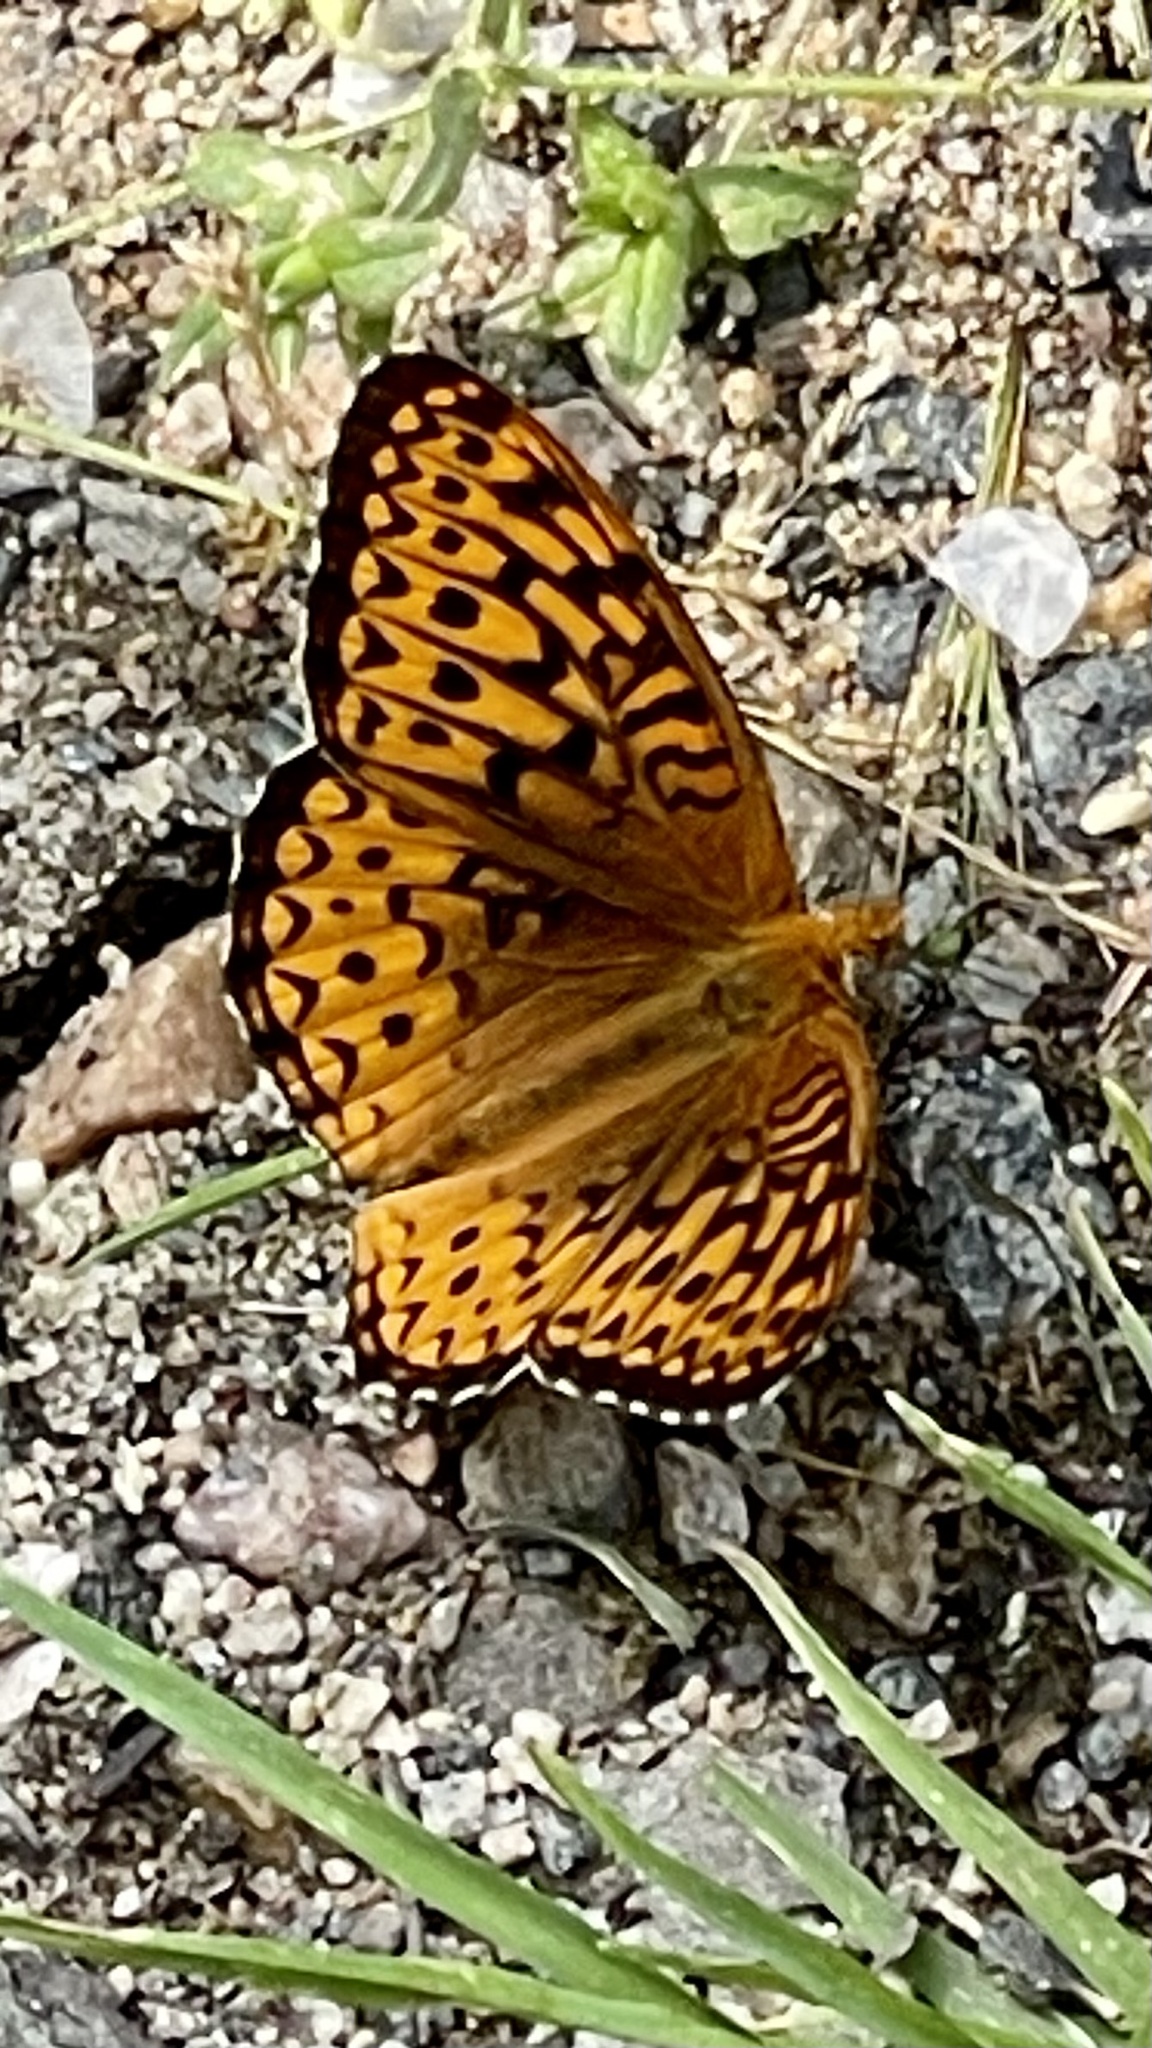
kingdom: Animalia
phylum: Arthropoda
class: Insecta
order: Lepidoptera
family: Nymphalidae
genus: Speyeria
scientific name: Speyeria atlantis
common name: Atlantis fritillary
